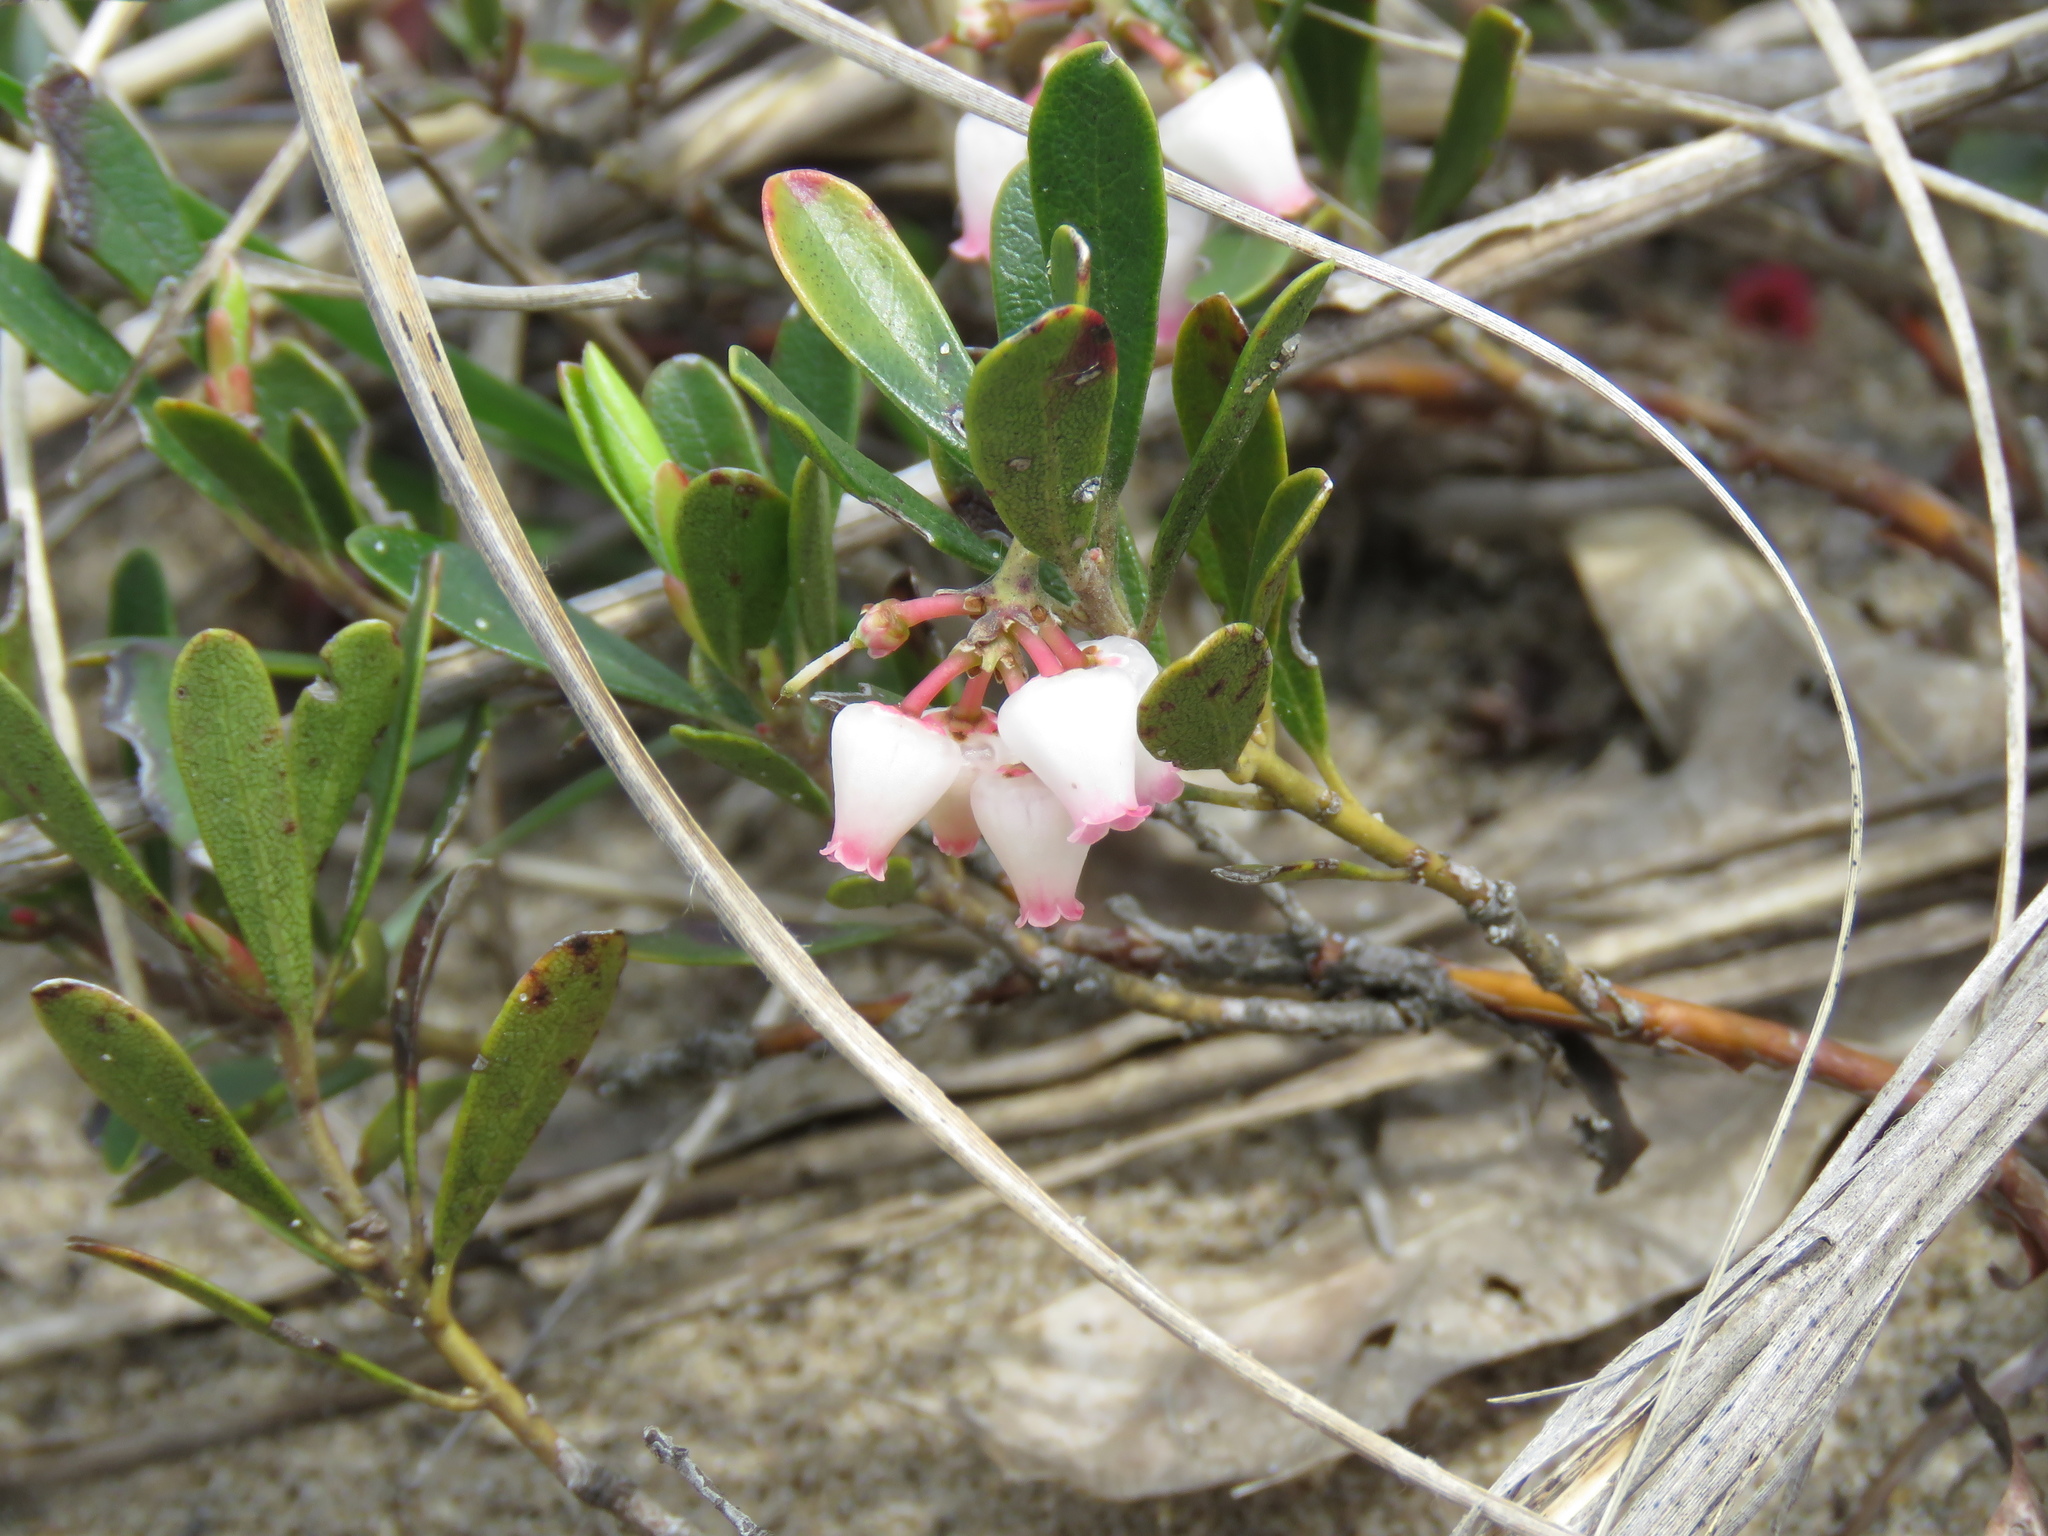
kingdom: Plantae
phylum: Tracheophyta
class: Magnoliopsida
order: Ericales
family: Ericaceae
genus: Arctostaphylos
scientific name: Arctostaphylos uva-ursi
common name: Bearberry
